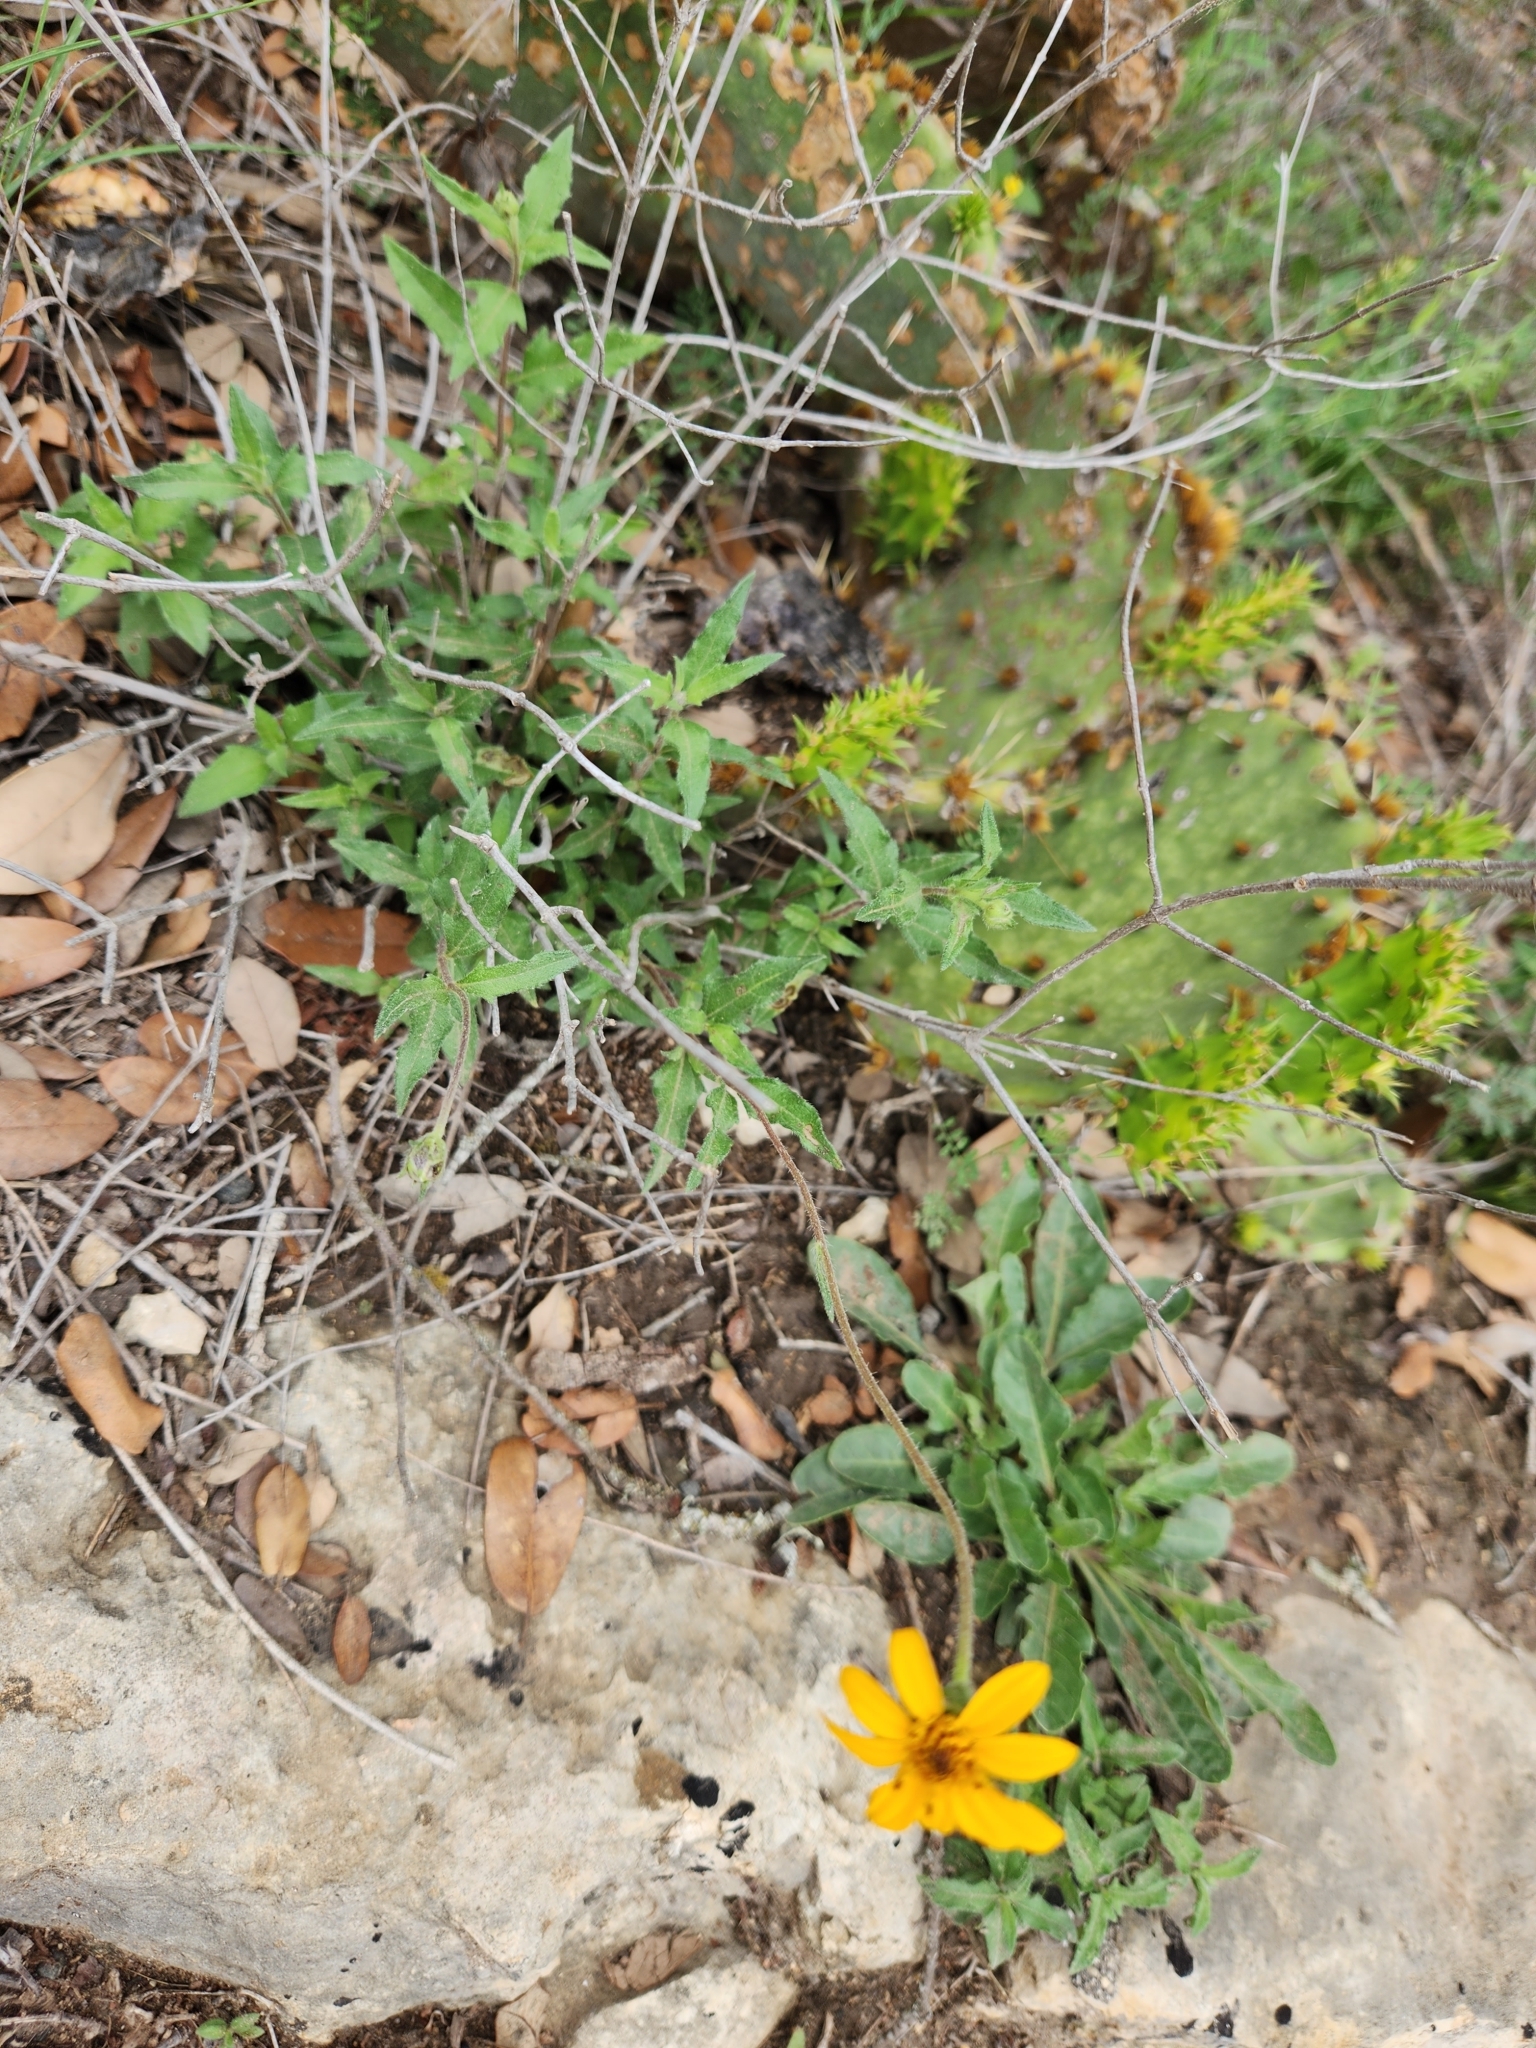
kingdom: Plantae
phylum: Tracheophyta
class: Magnoliopsida
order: Asterales
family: Asteraceae
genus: Wedelia
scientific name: Wedelia acapulcensis
